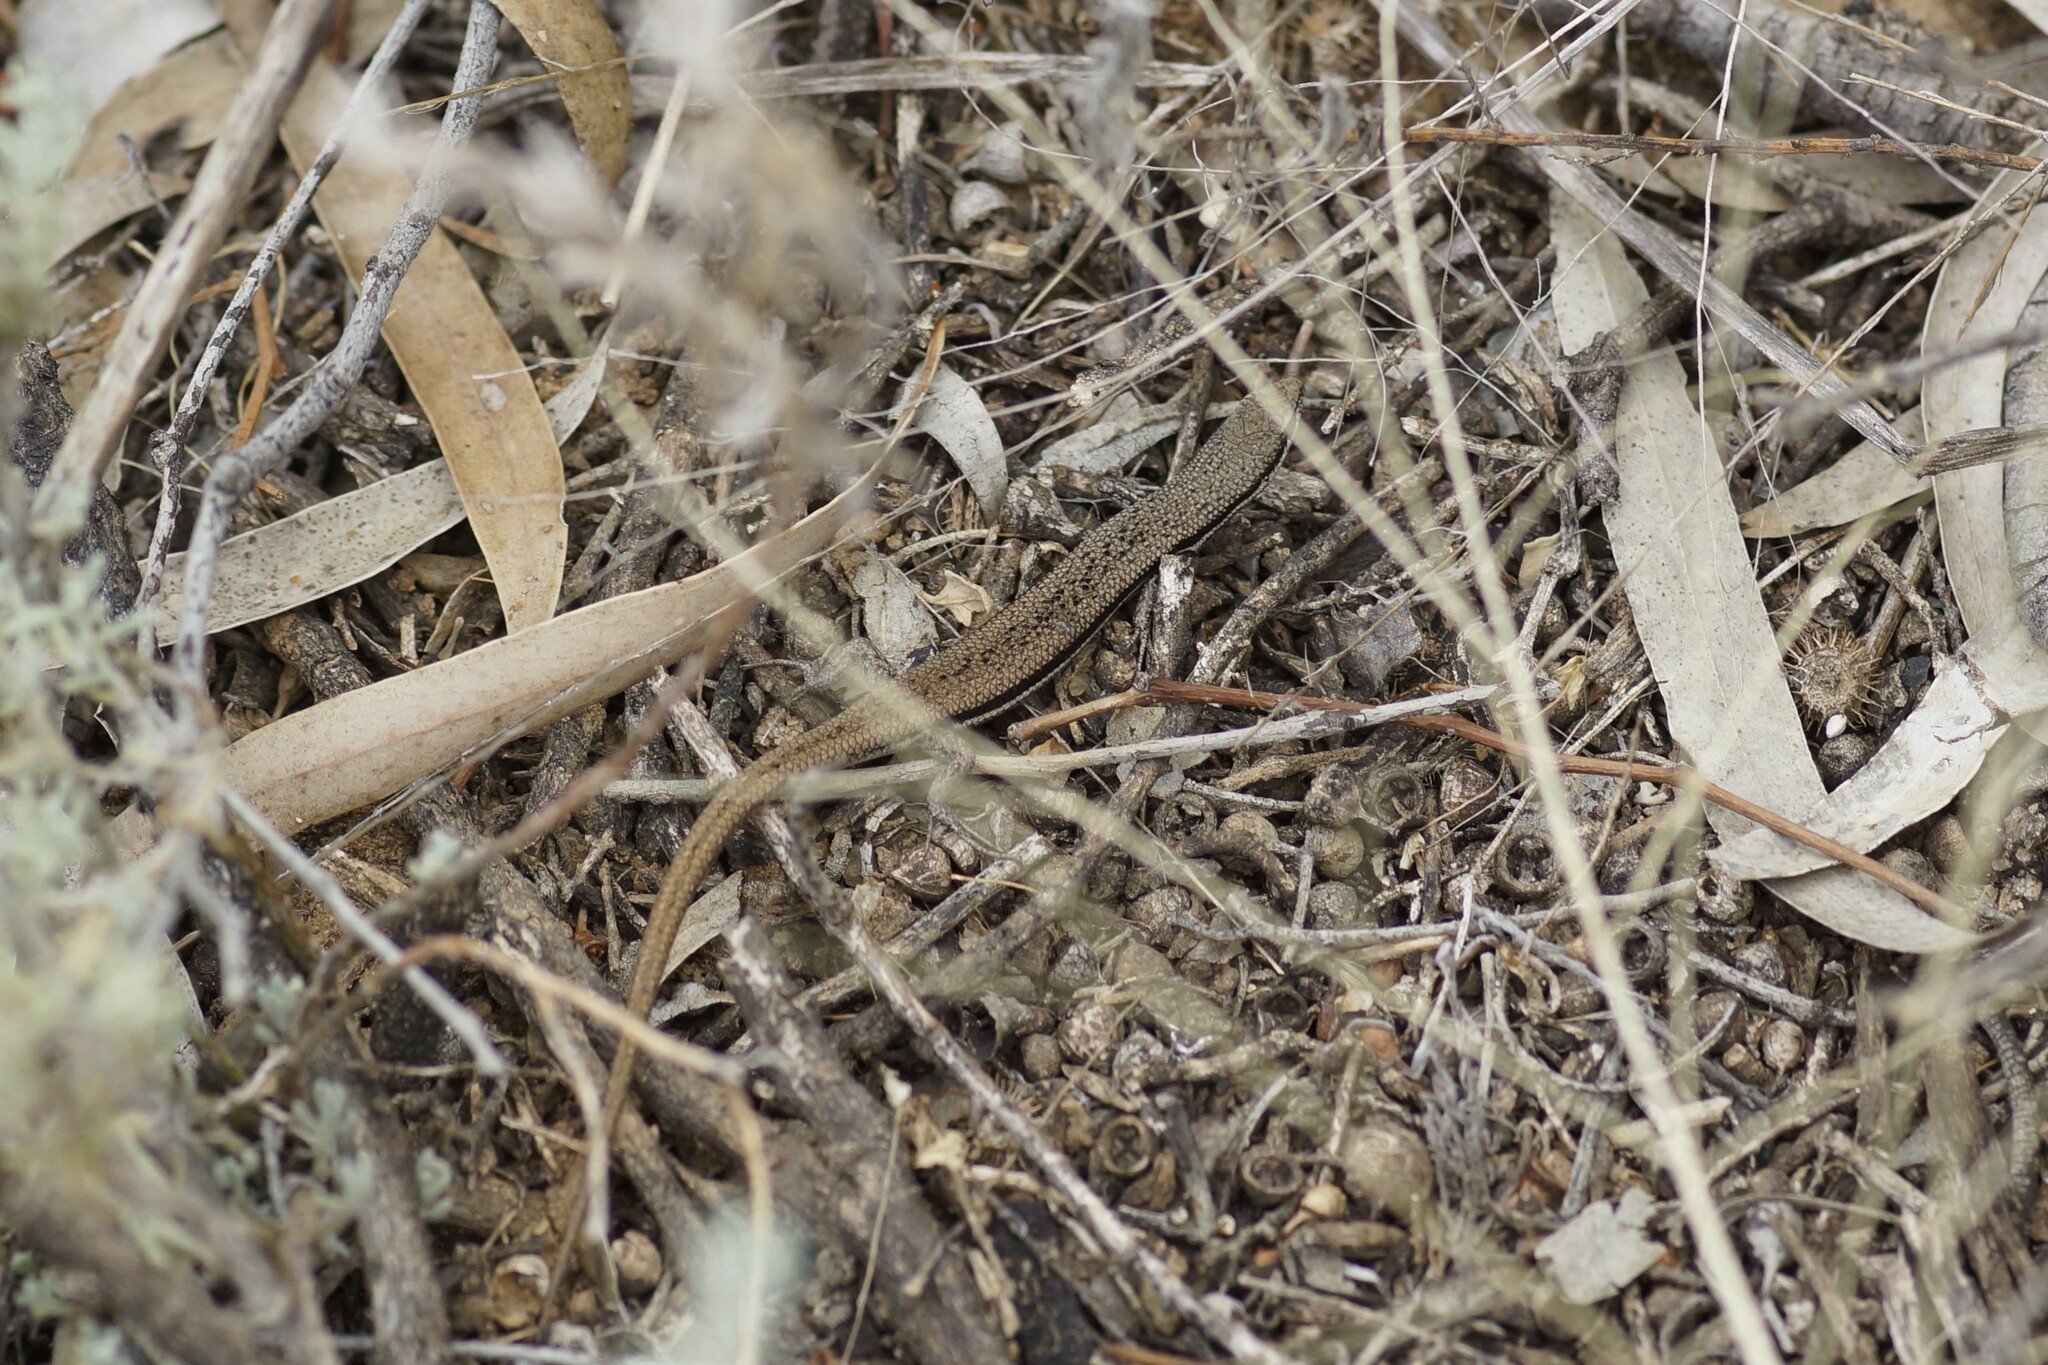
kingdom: Animalia
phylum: Chordata
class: Squamata
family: Scincidae
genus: Morethia
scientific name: Morethia boulengeri
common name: South-eastern morethia skink
